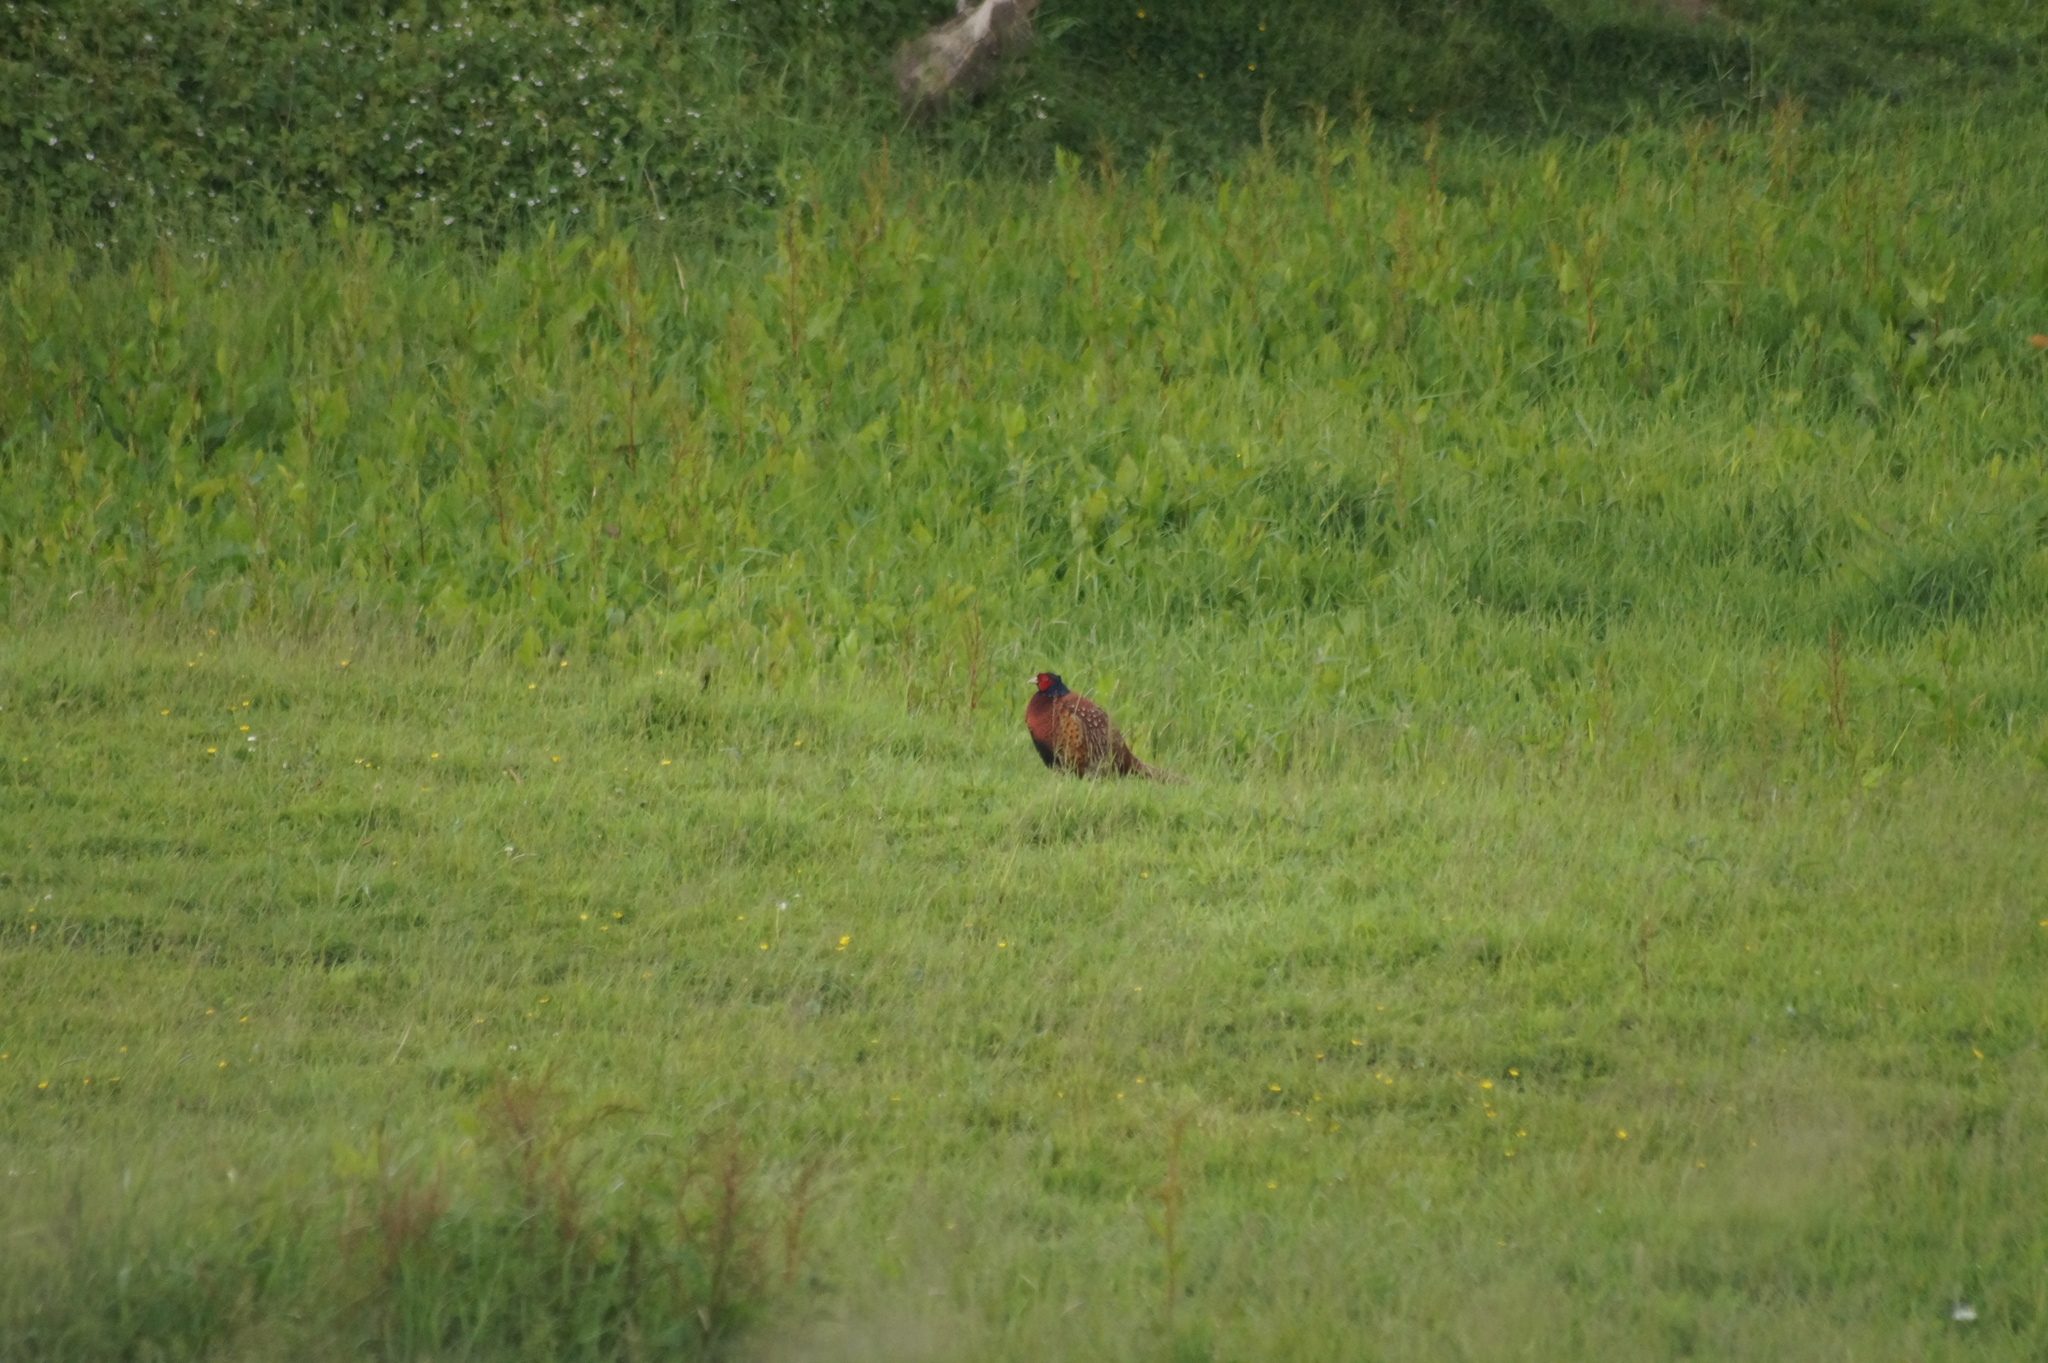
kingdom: Animalia
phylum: Chordata
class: Aves
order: Galliformes
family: Phasianidae
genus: Phasianus
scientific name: Phasianus colchicus
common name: Common pheasant
